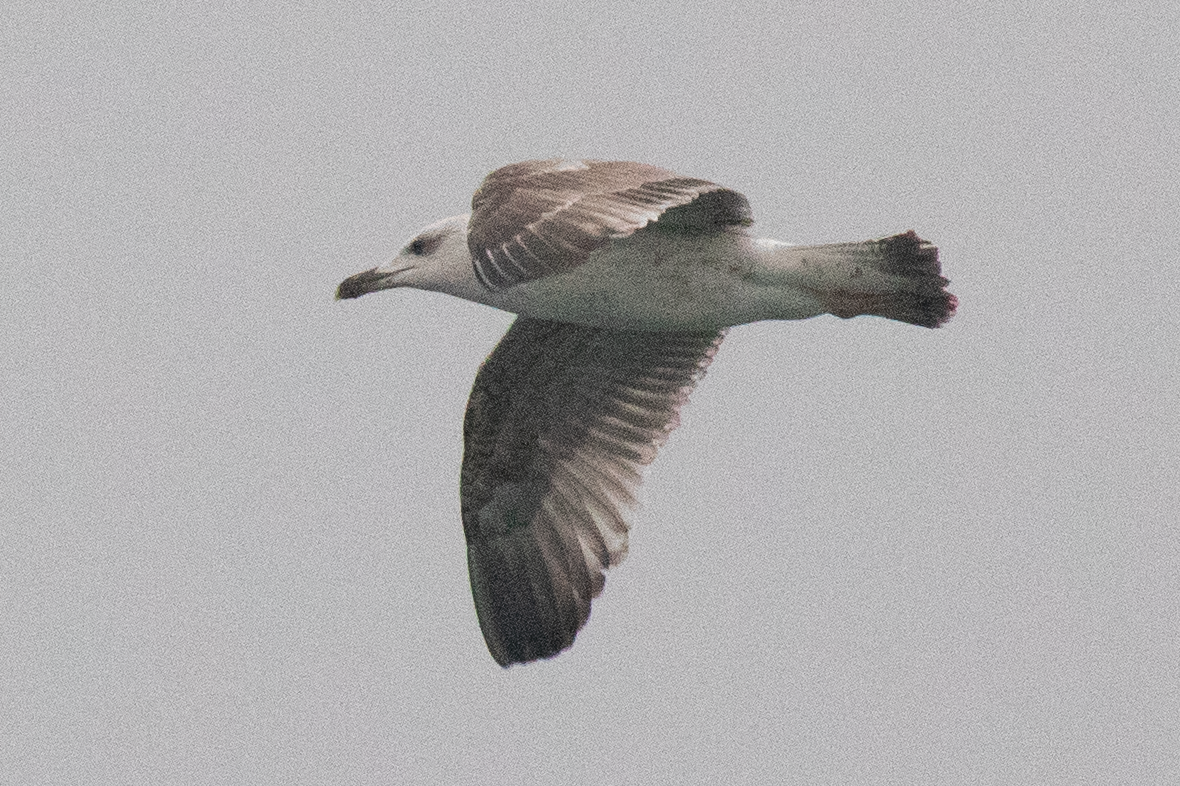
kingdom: Animalia
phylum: Chordata
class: Aves
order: Charadriiformes
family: Laridae
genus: Larus
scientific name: Larus michahellis
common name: Yellow-legged gull
